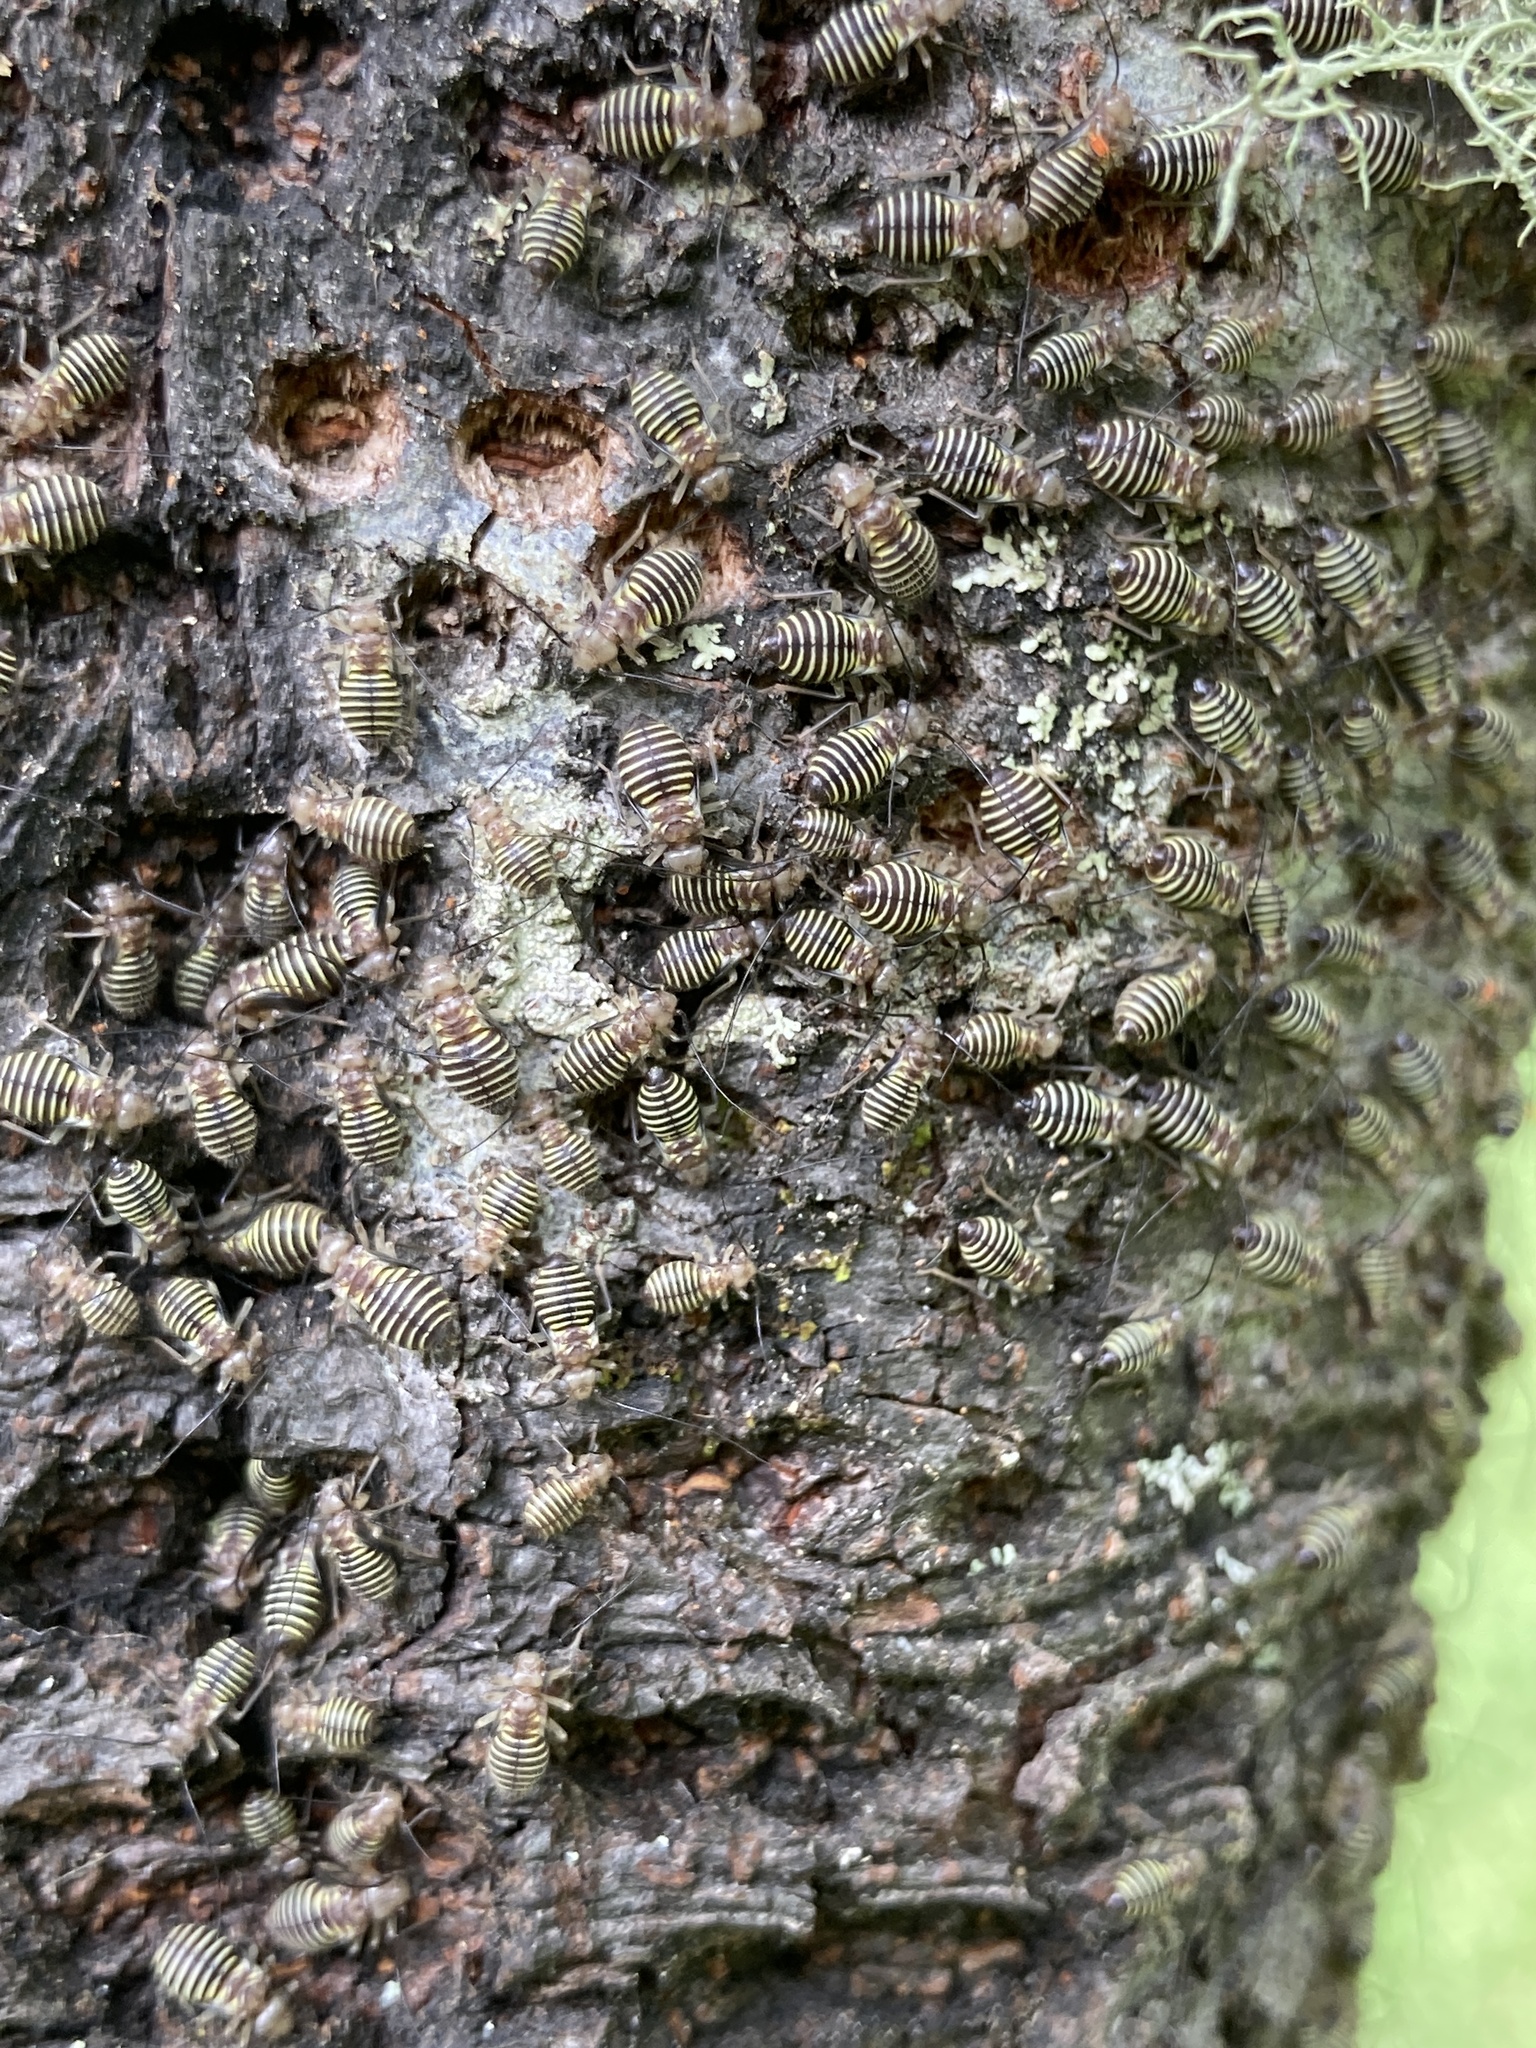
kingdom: Animalia
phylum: Arthropoda
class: Insecta
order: Psocodea
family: Psocidae
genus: Cerastipsocus
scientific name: Cerastipsocus venosus
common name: Tree cattle
